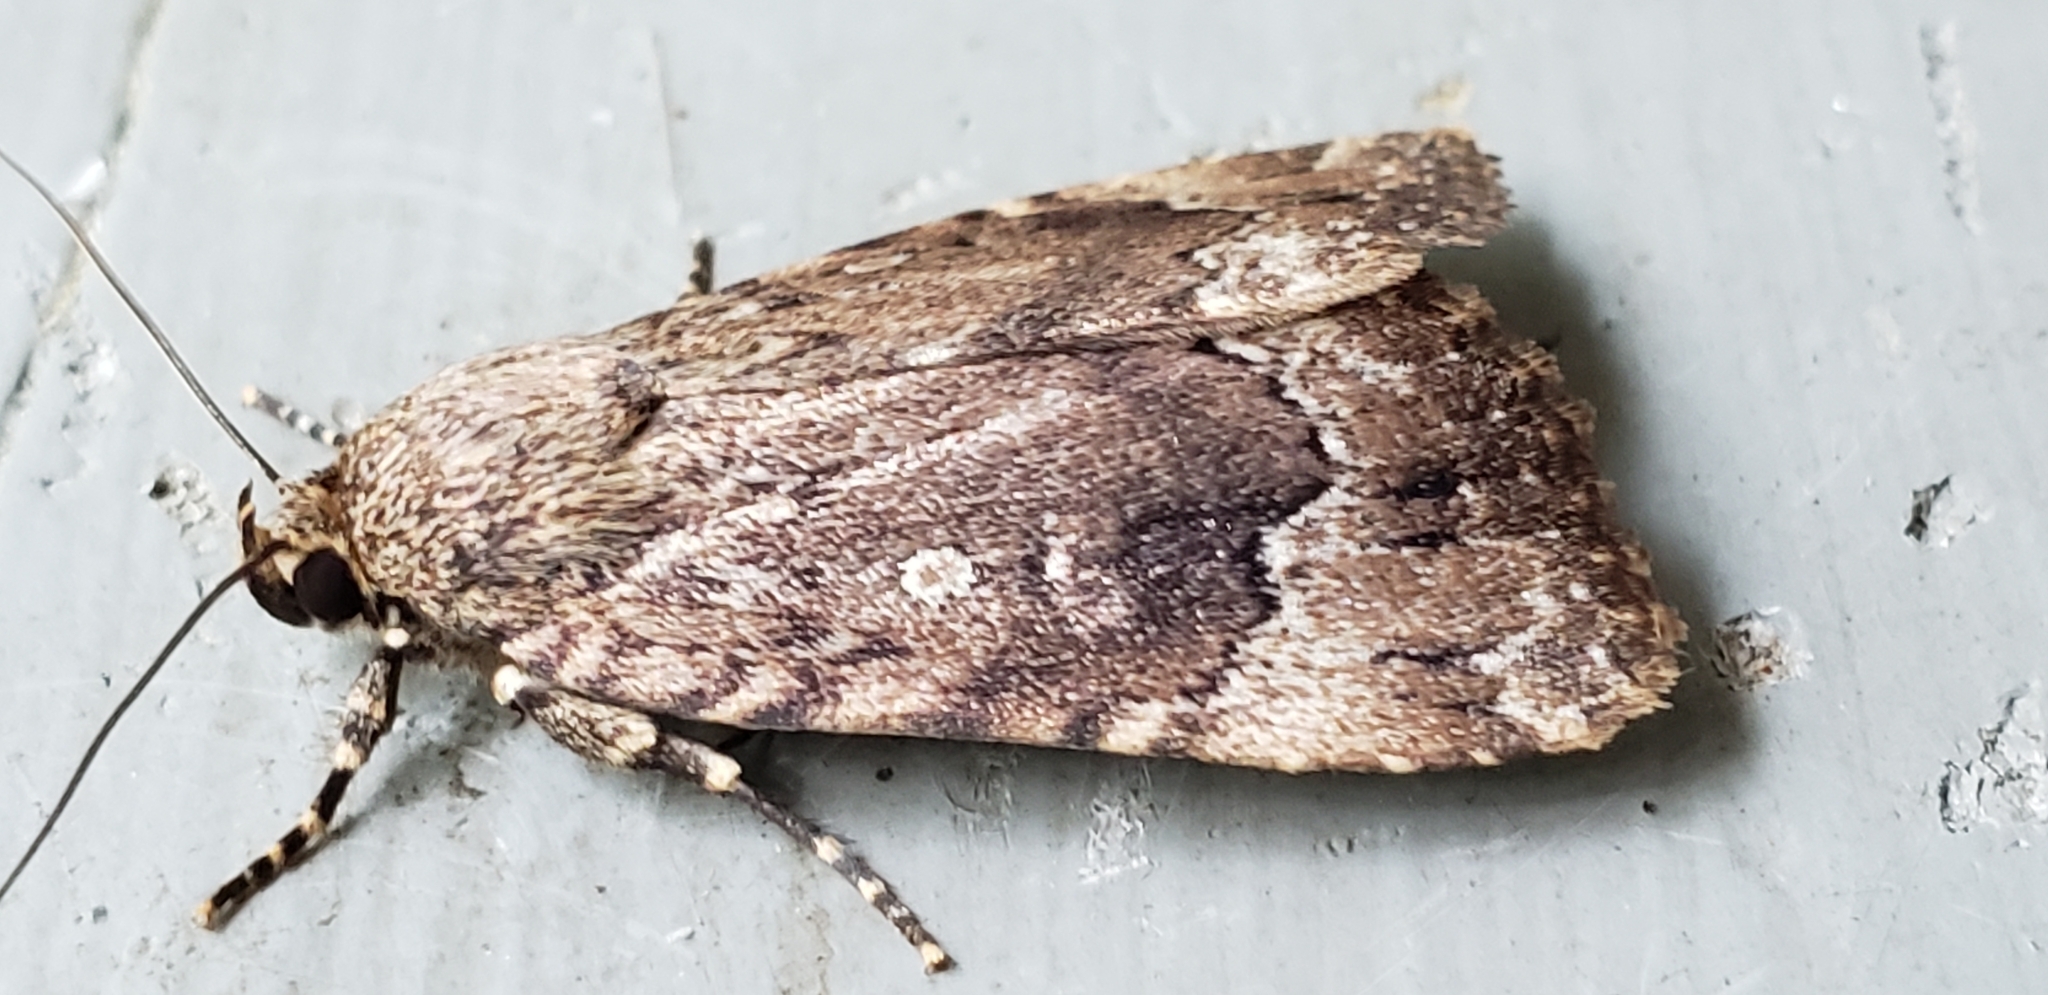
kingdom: Animalia
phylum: Arthropoda
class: Insecta
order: Lepidoptera
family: Noctuidae
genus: Amphipyra
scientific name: Amphipyra pyramidoides
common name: American copper underwing
